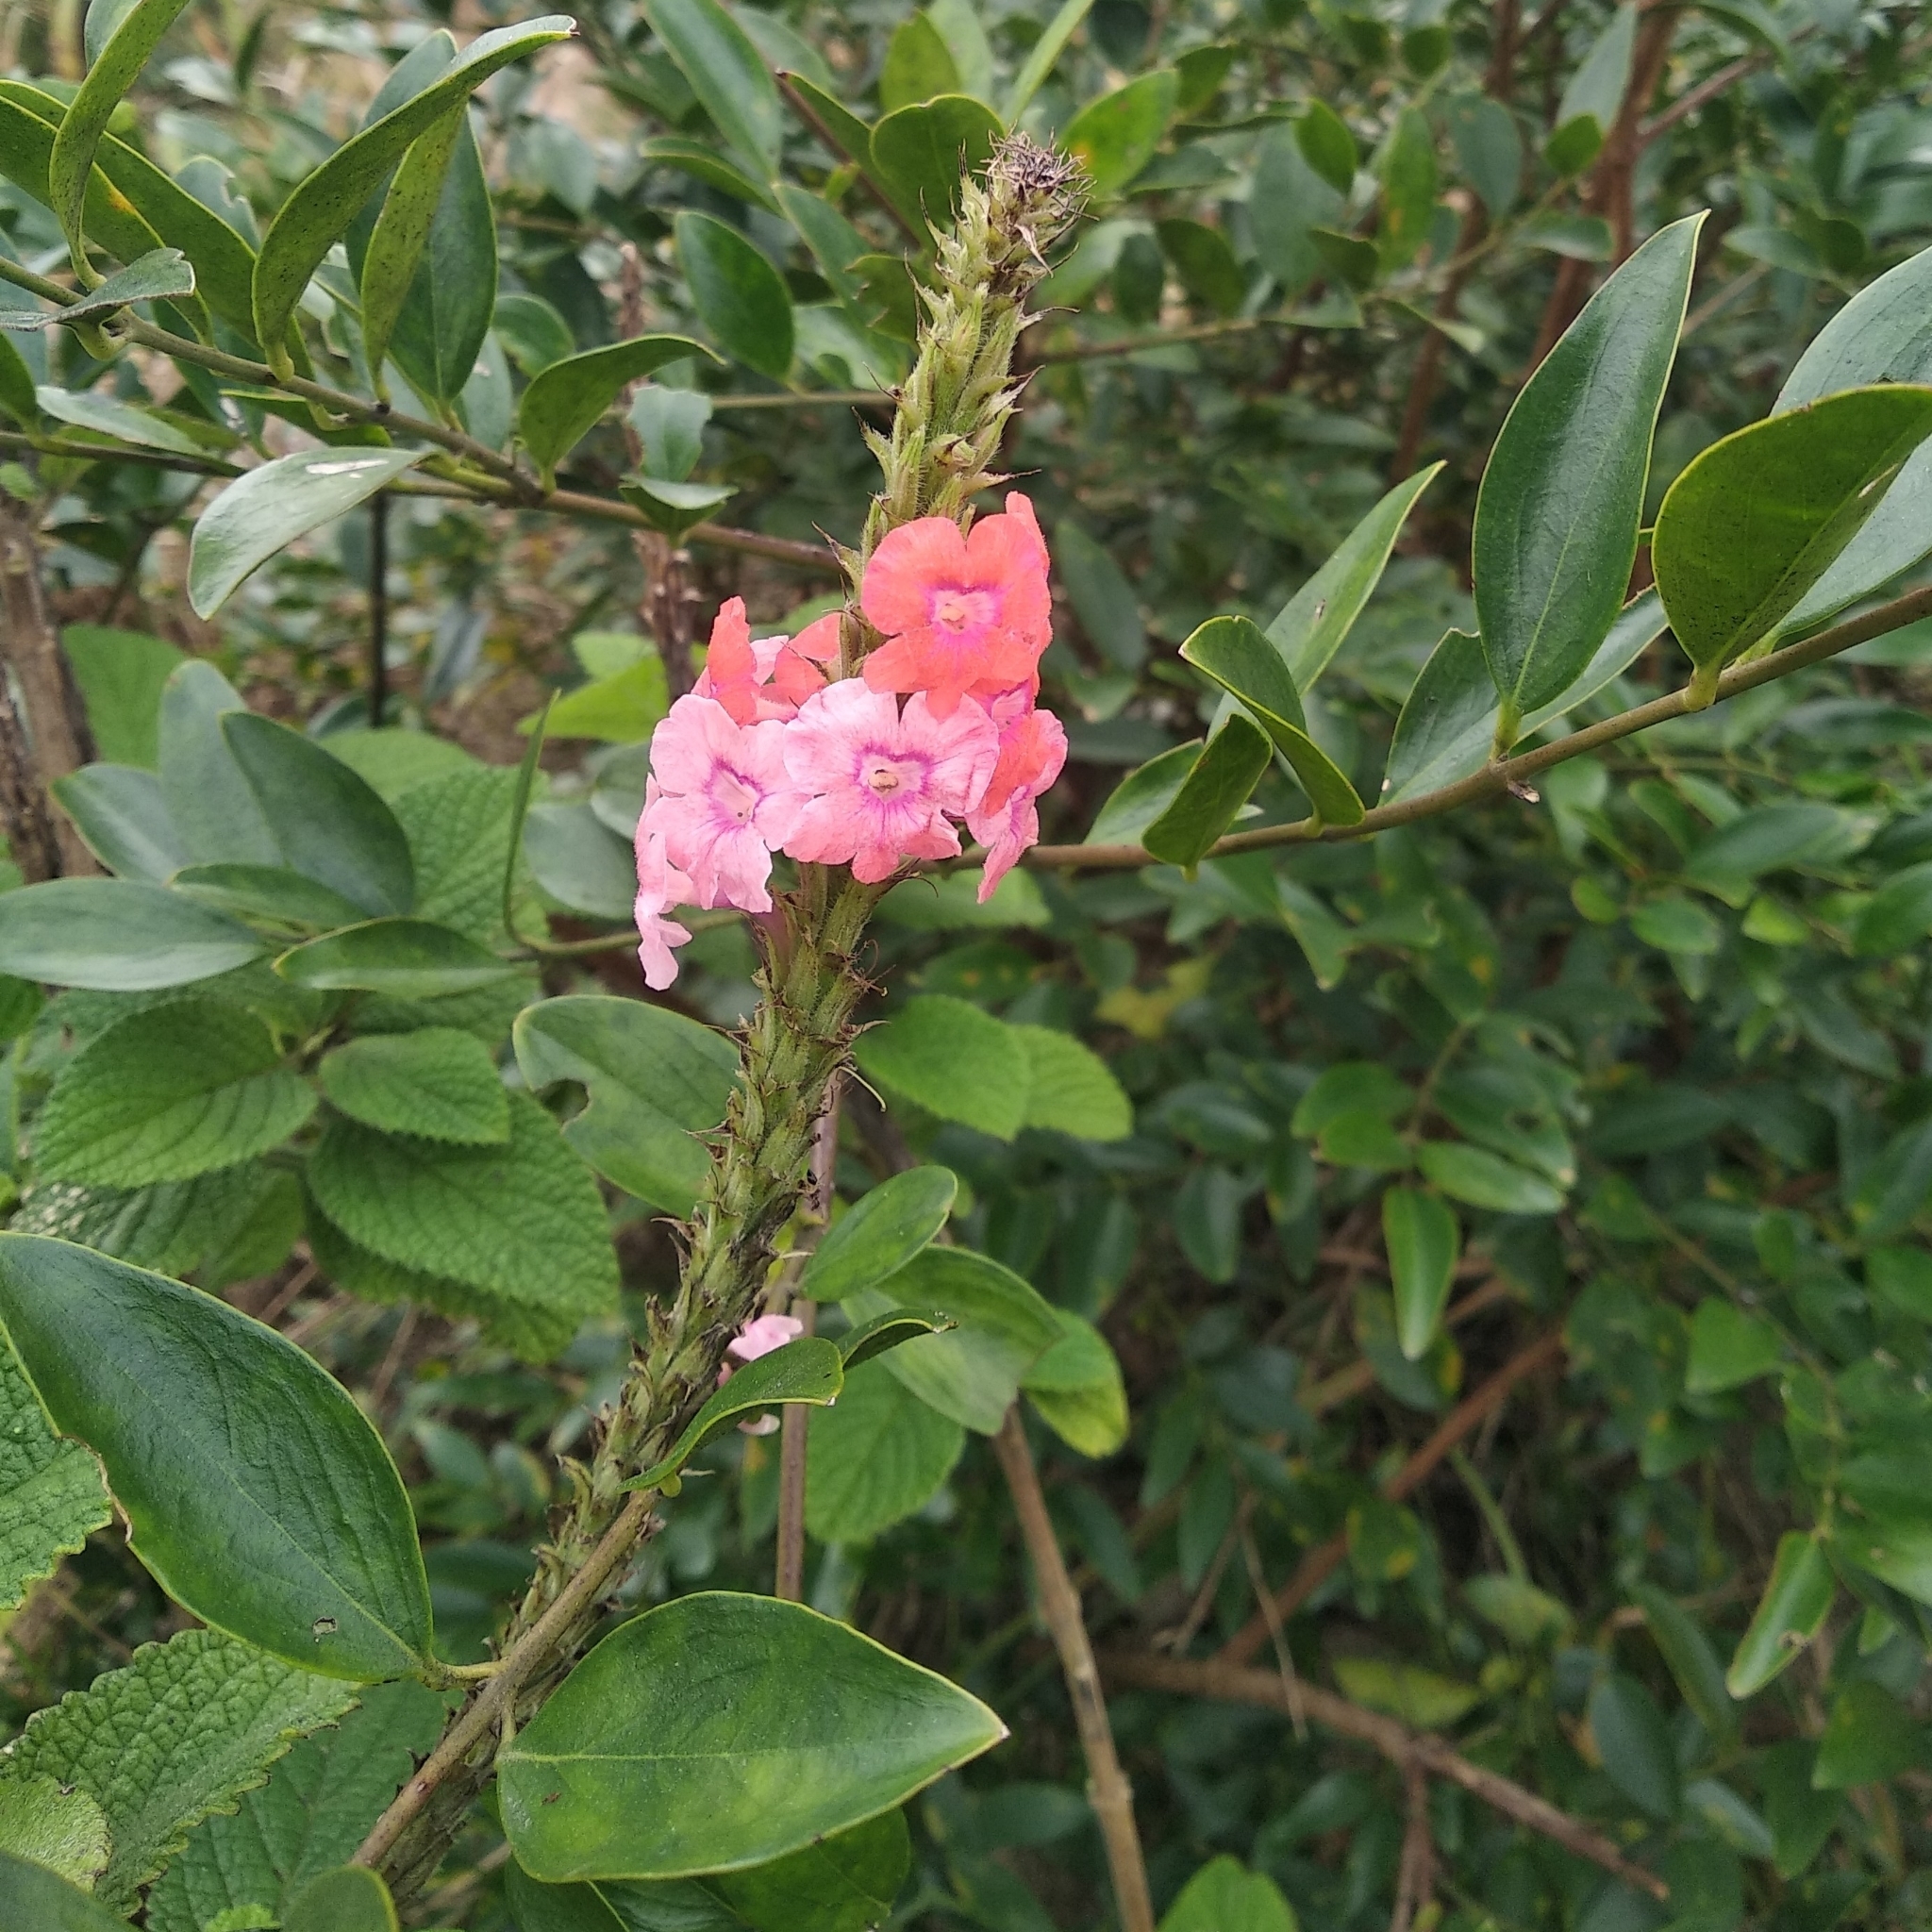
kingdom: Plantae
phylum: Tracheophyta
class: Magnoliopsida
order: Lamiales
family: Verbenaceae
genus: Stachytarpheta
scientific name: Stachytarpheta mutabilis
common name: Changeable velvetberry
